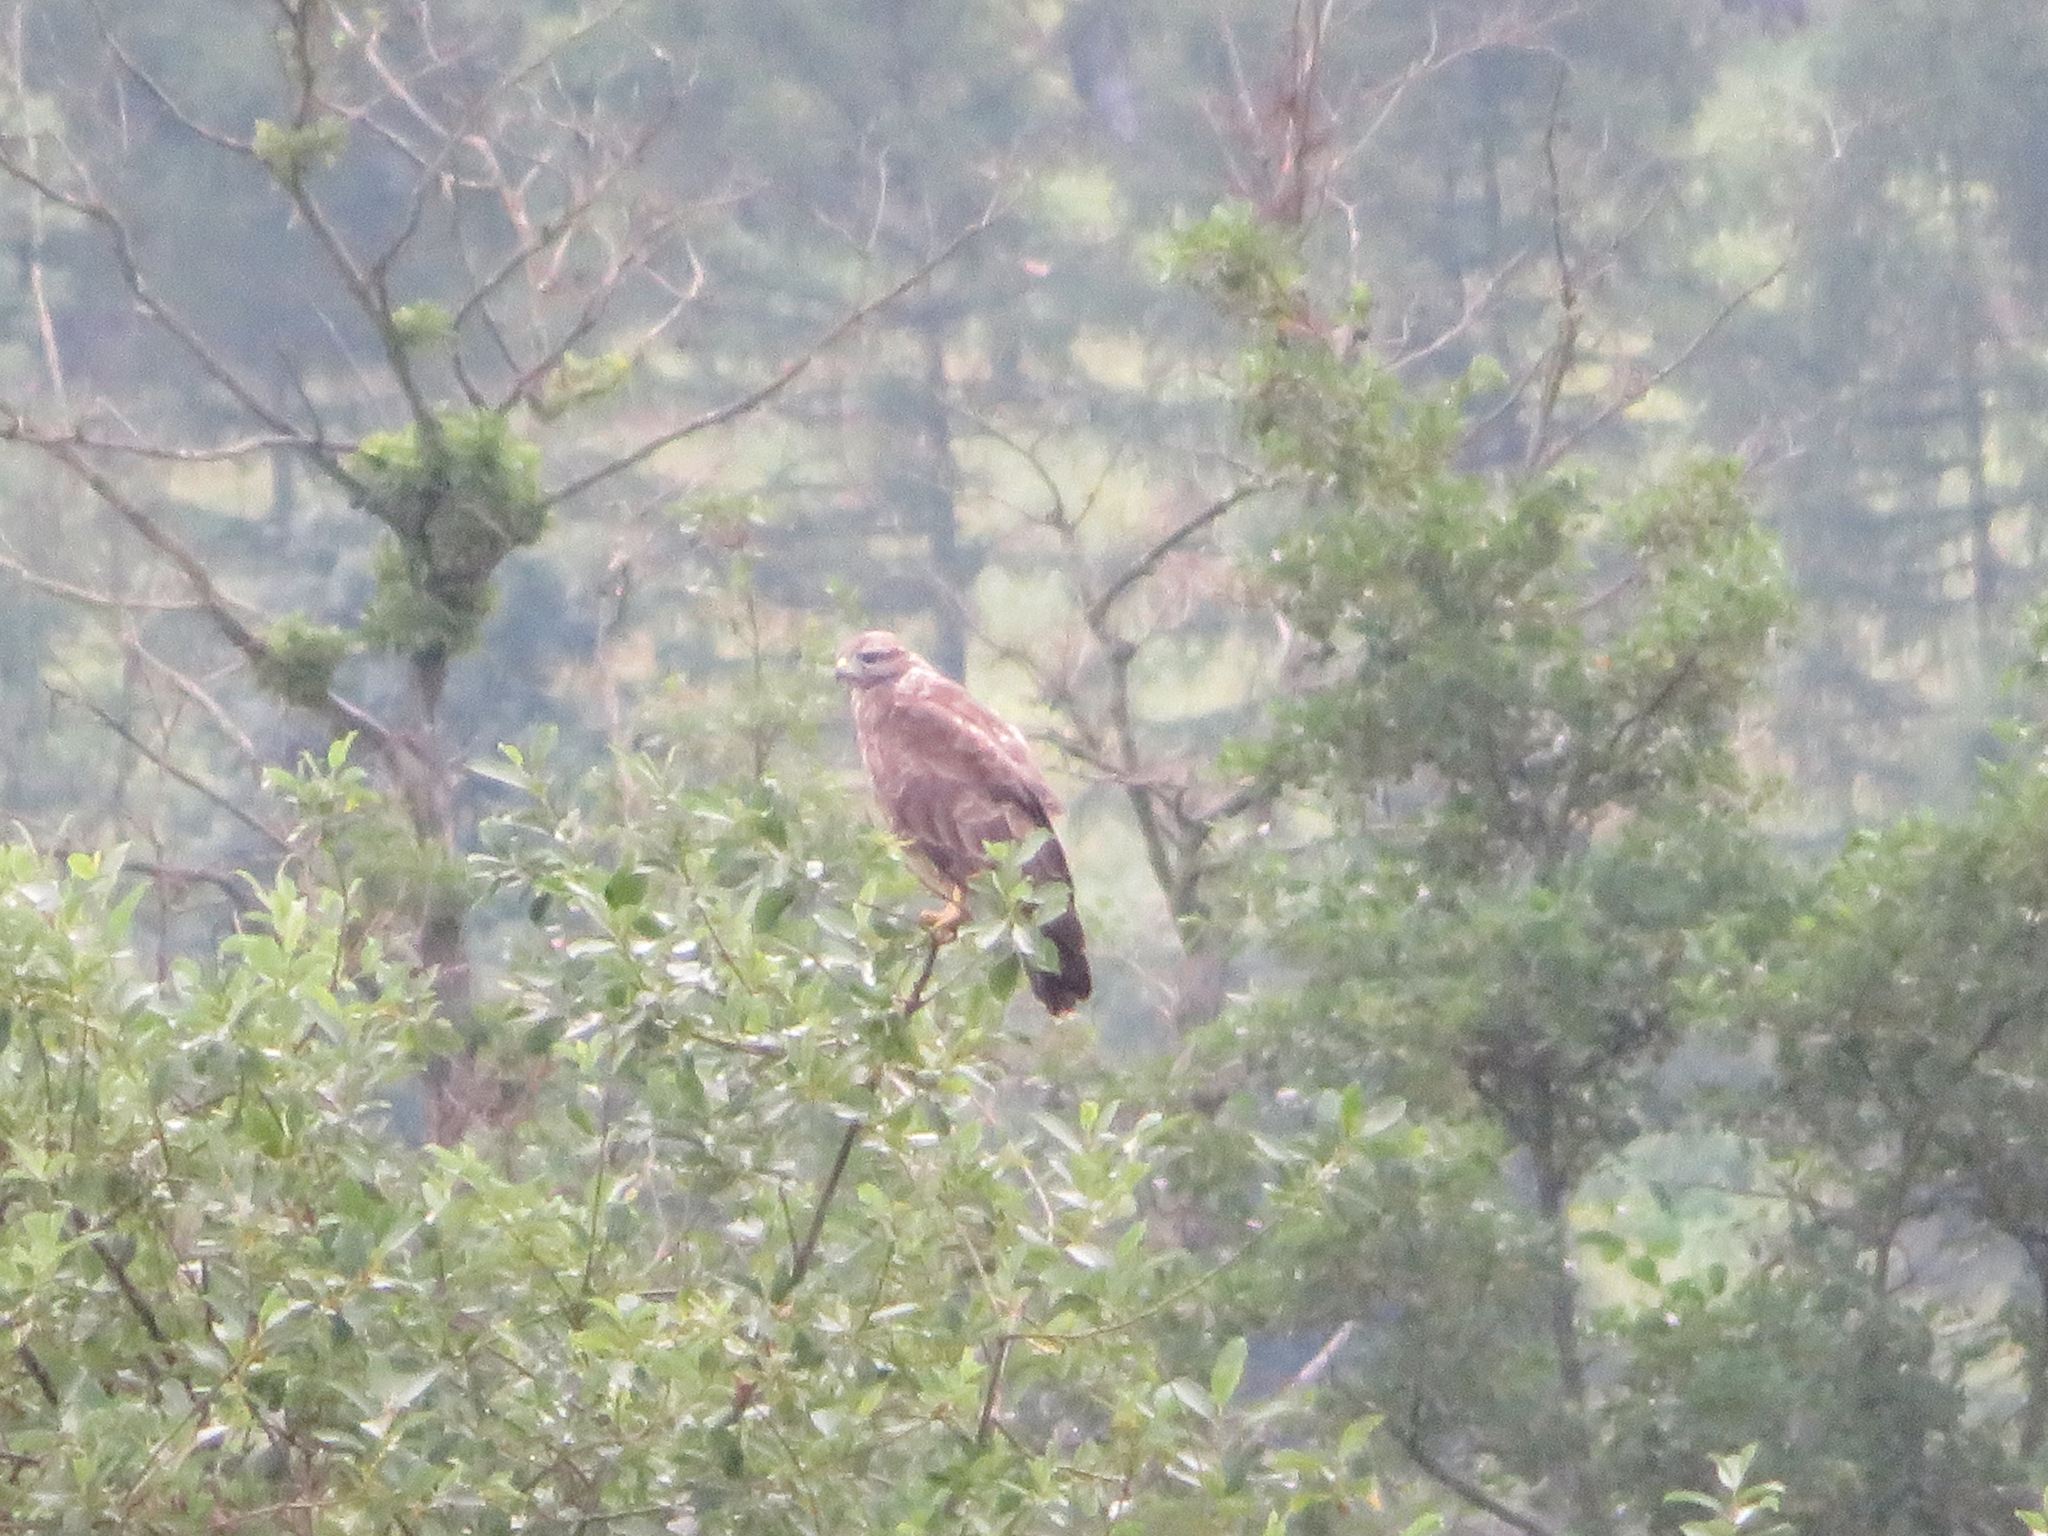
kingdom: Animalia
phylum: Chordata
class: Aves
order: Accipitriformes
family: Accipitridae
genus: Buteo
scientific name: Buteo buteo
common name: Common buzzard
